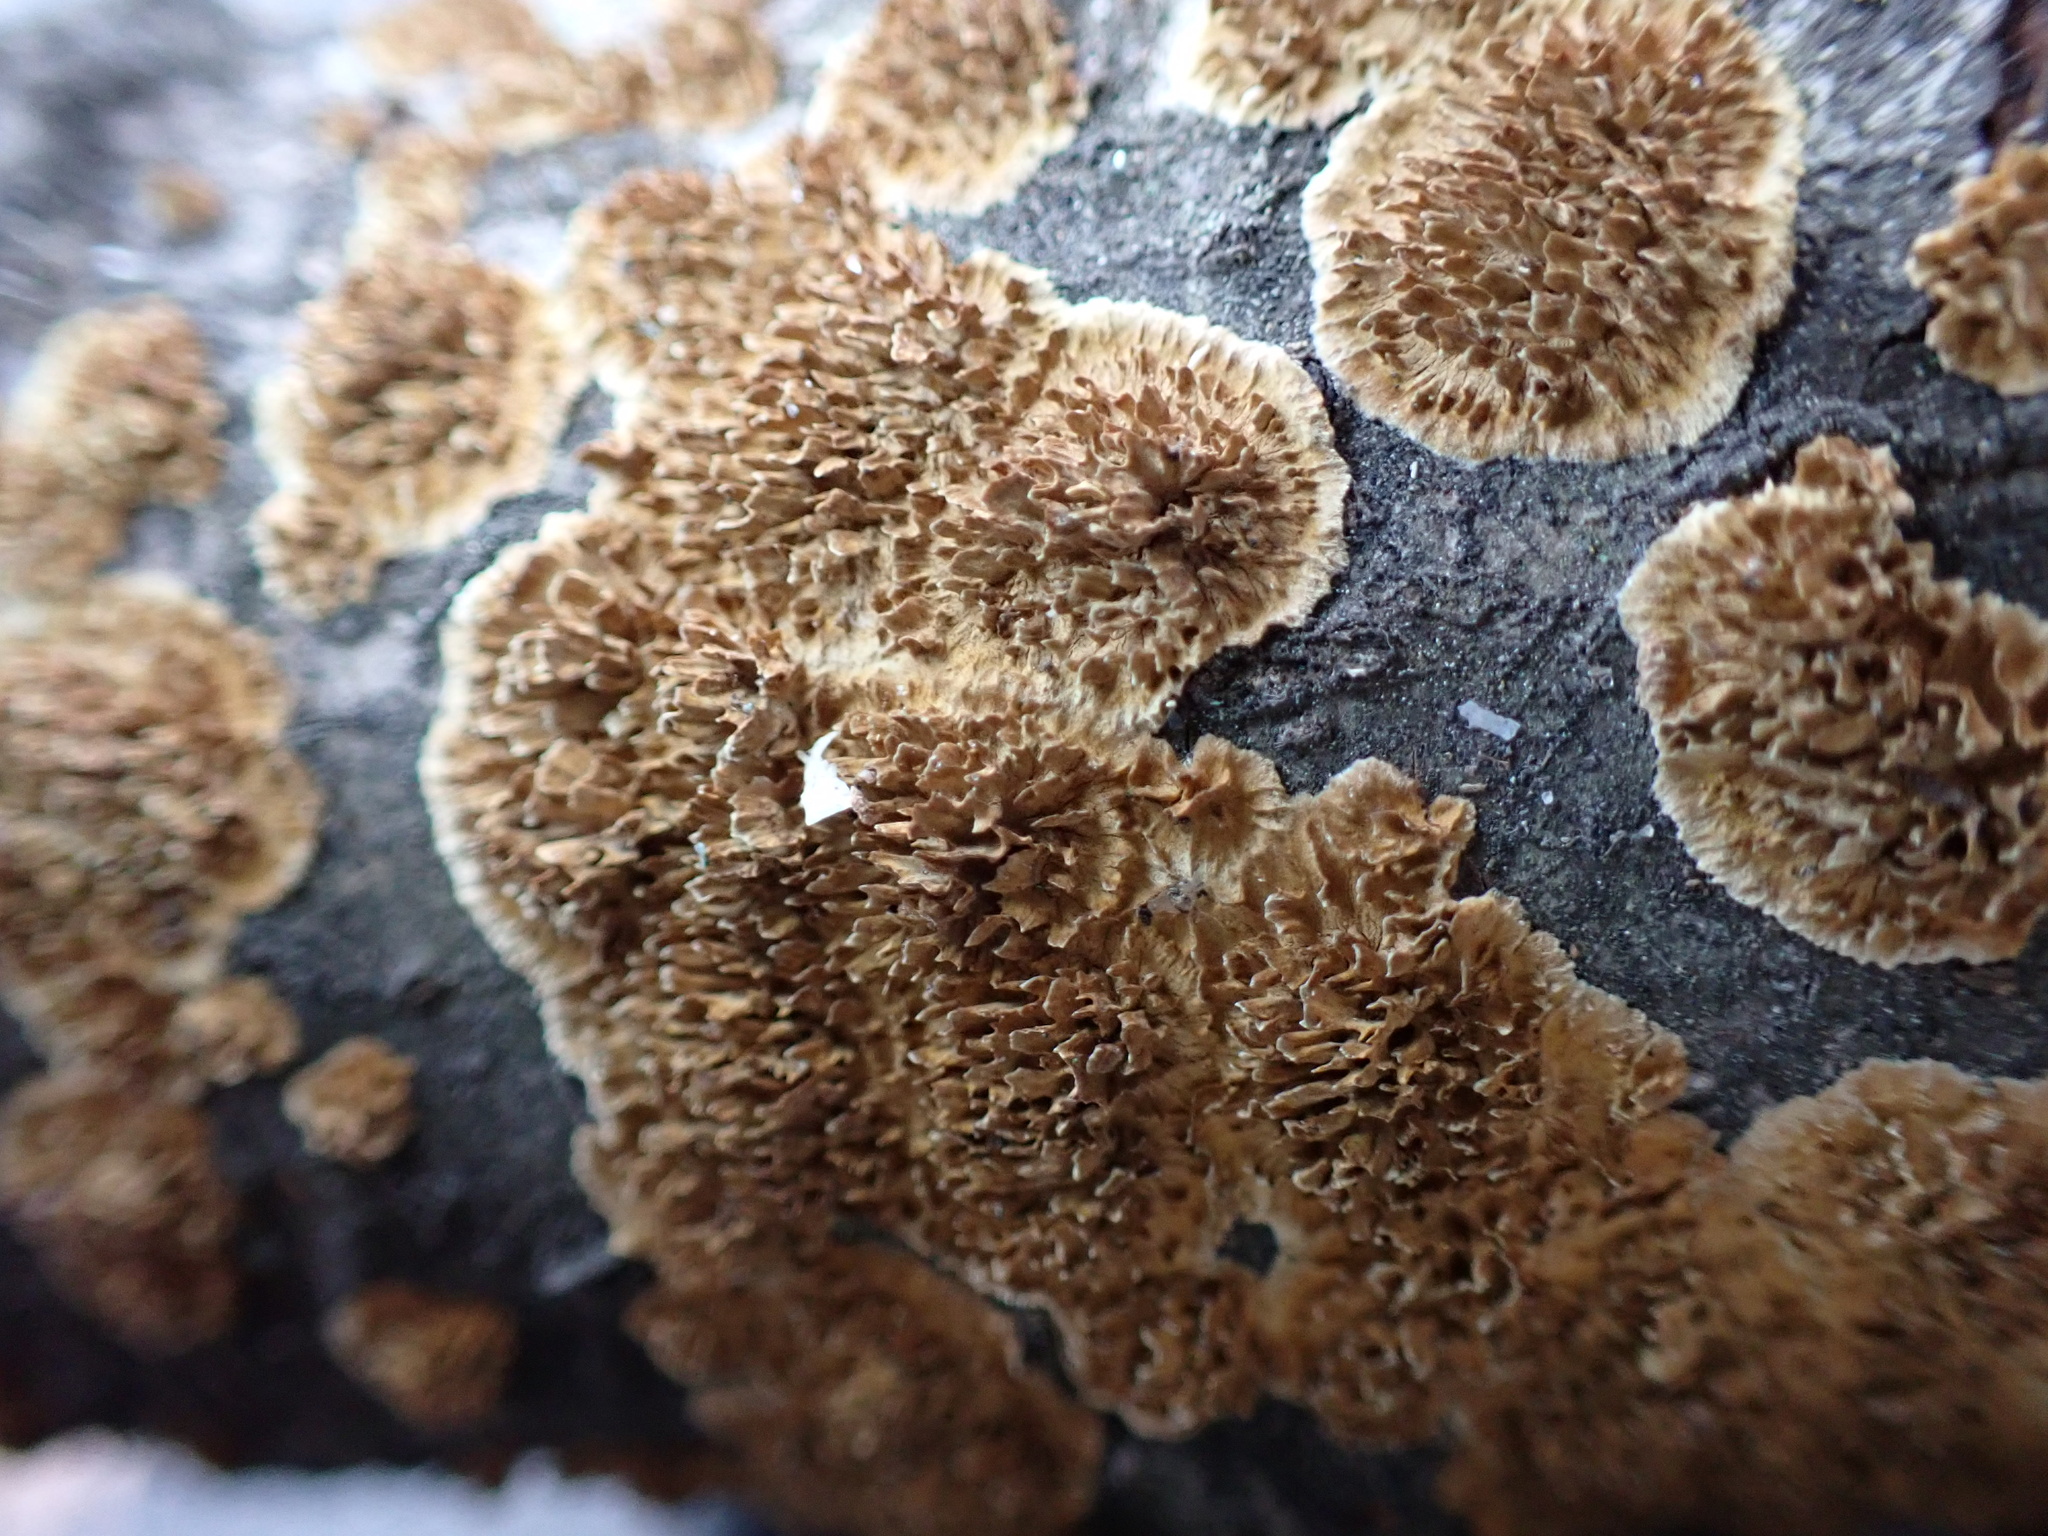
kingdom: Fungi
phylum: Basidiomycota
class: Agaricomycetes
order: Hymenochaetales
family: Hymenochaetaceae
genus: Hydnoporia
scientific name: Hydnoporia olivacea
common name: Brown-toothed crust fungus
